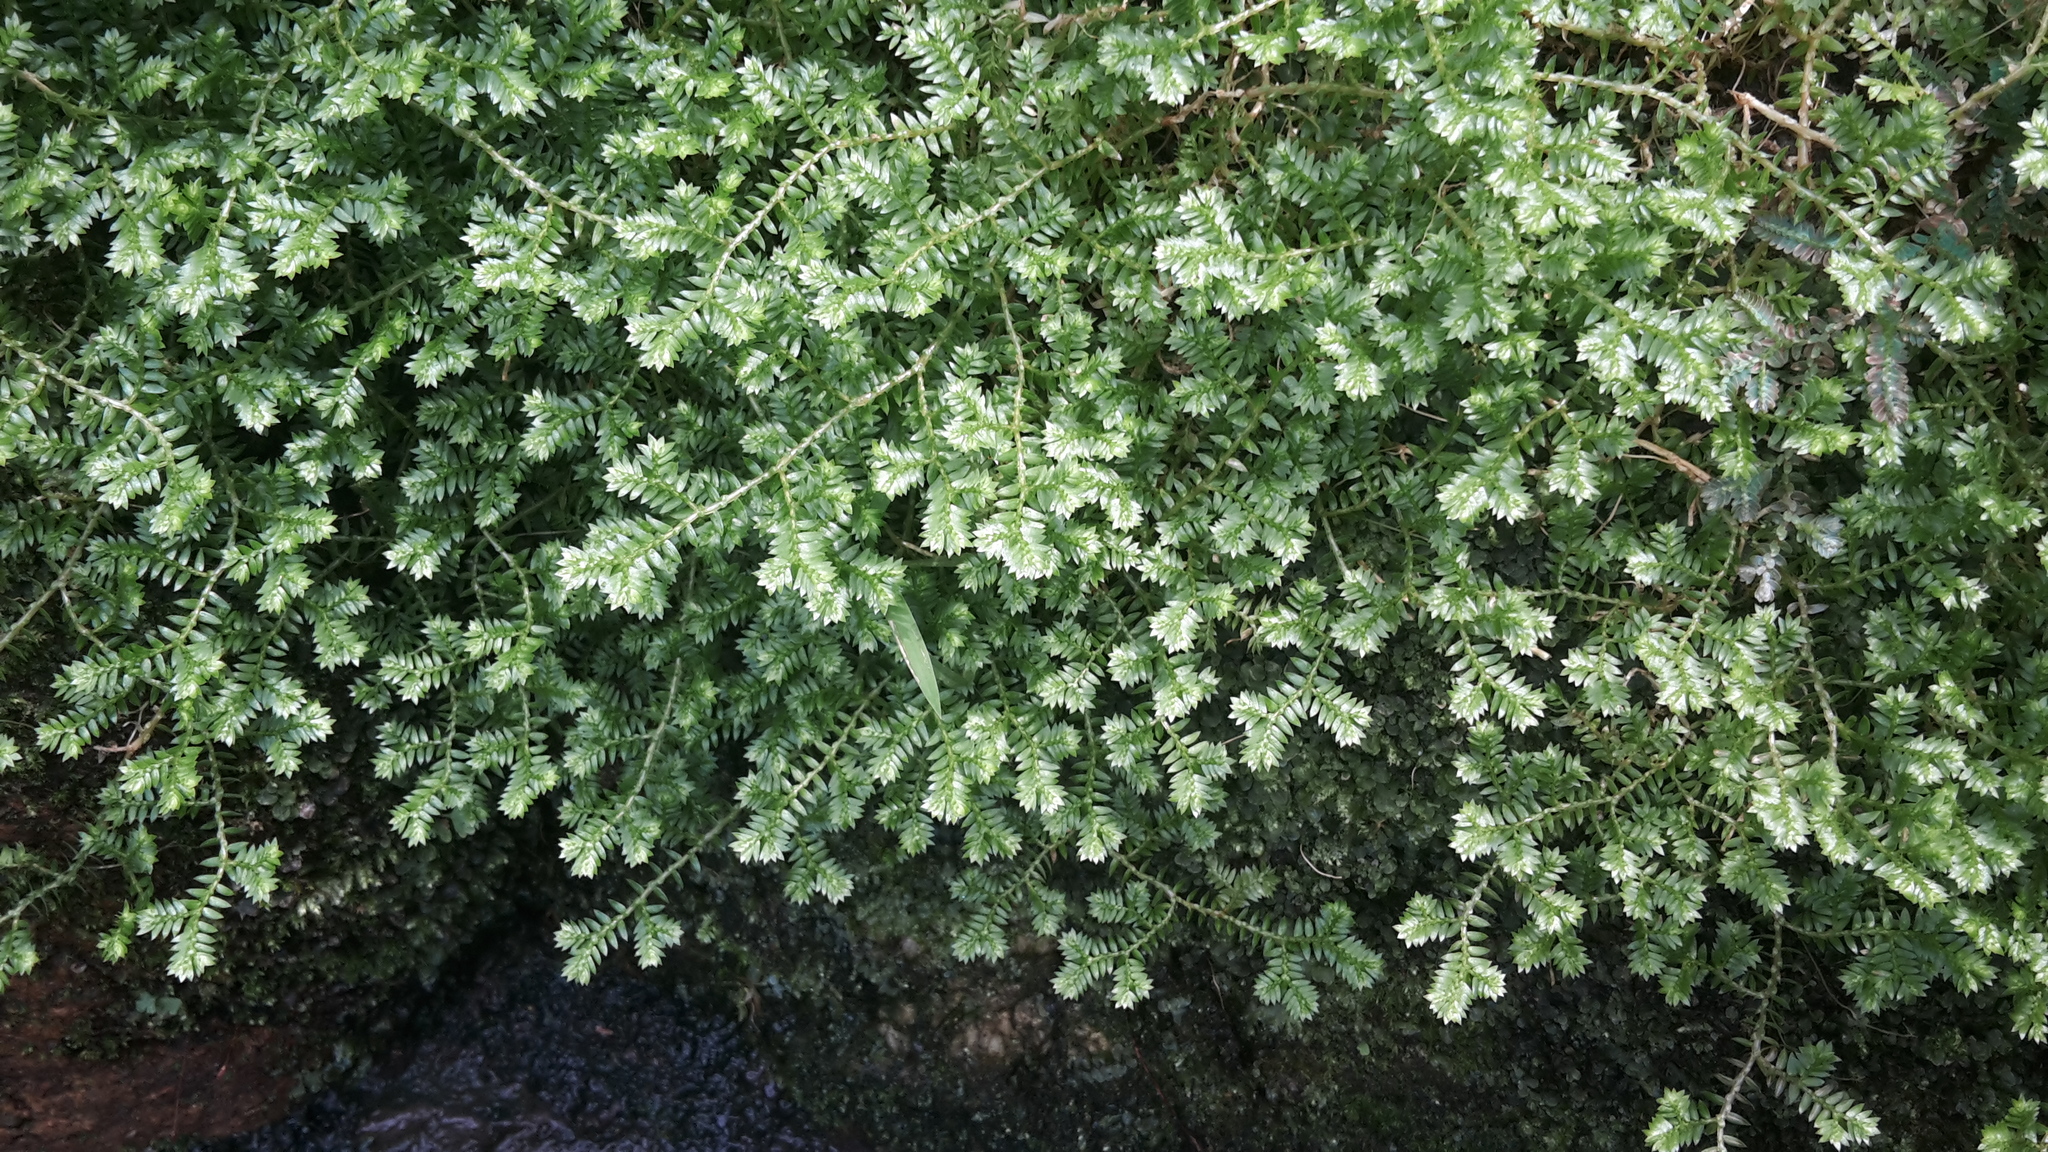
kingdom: Plantae
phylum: Tracheophyta
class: Lycopodiopsida
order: Selaginellales
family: Selaginellaceae
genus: Selaginella
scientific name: Selaginella kraussiana
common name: Krauss' spikemoss
